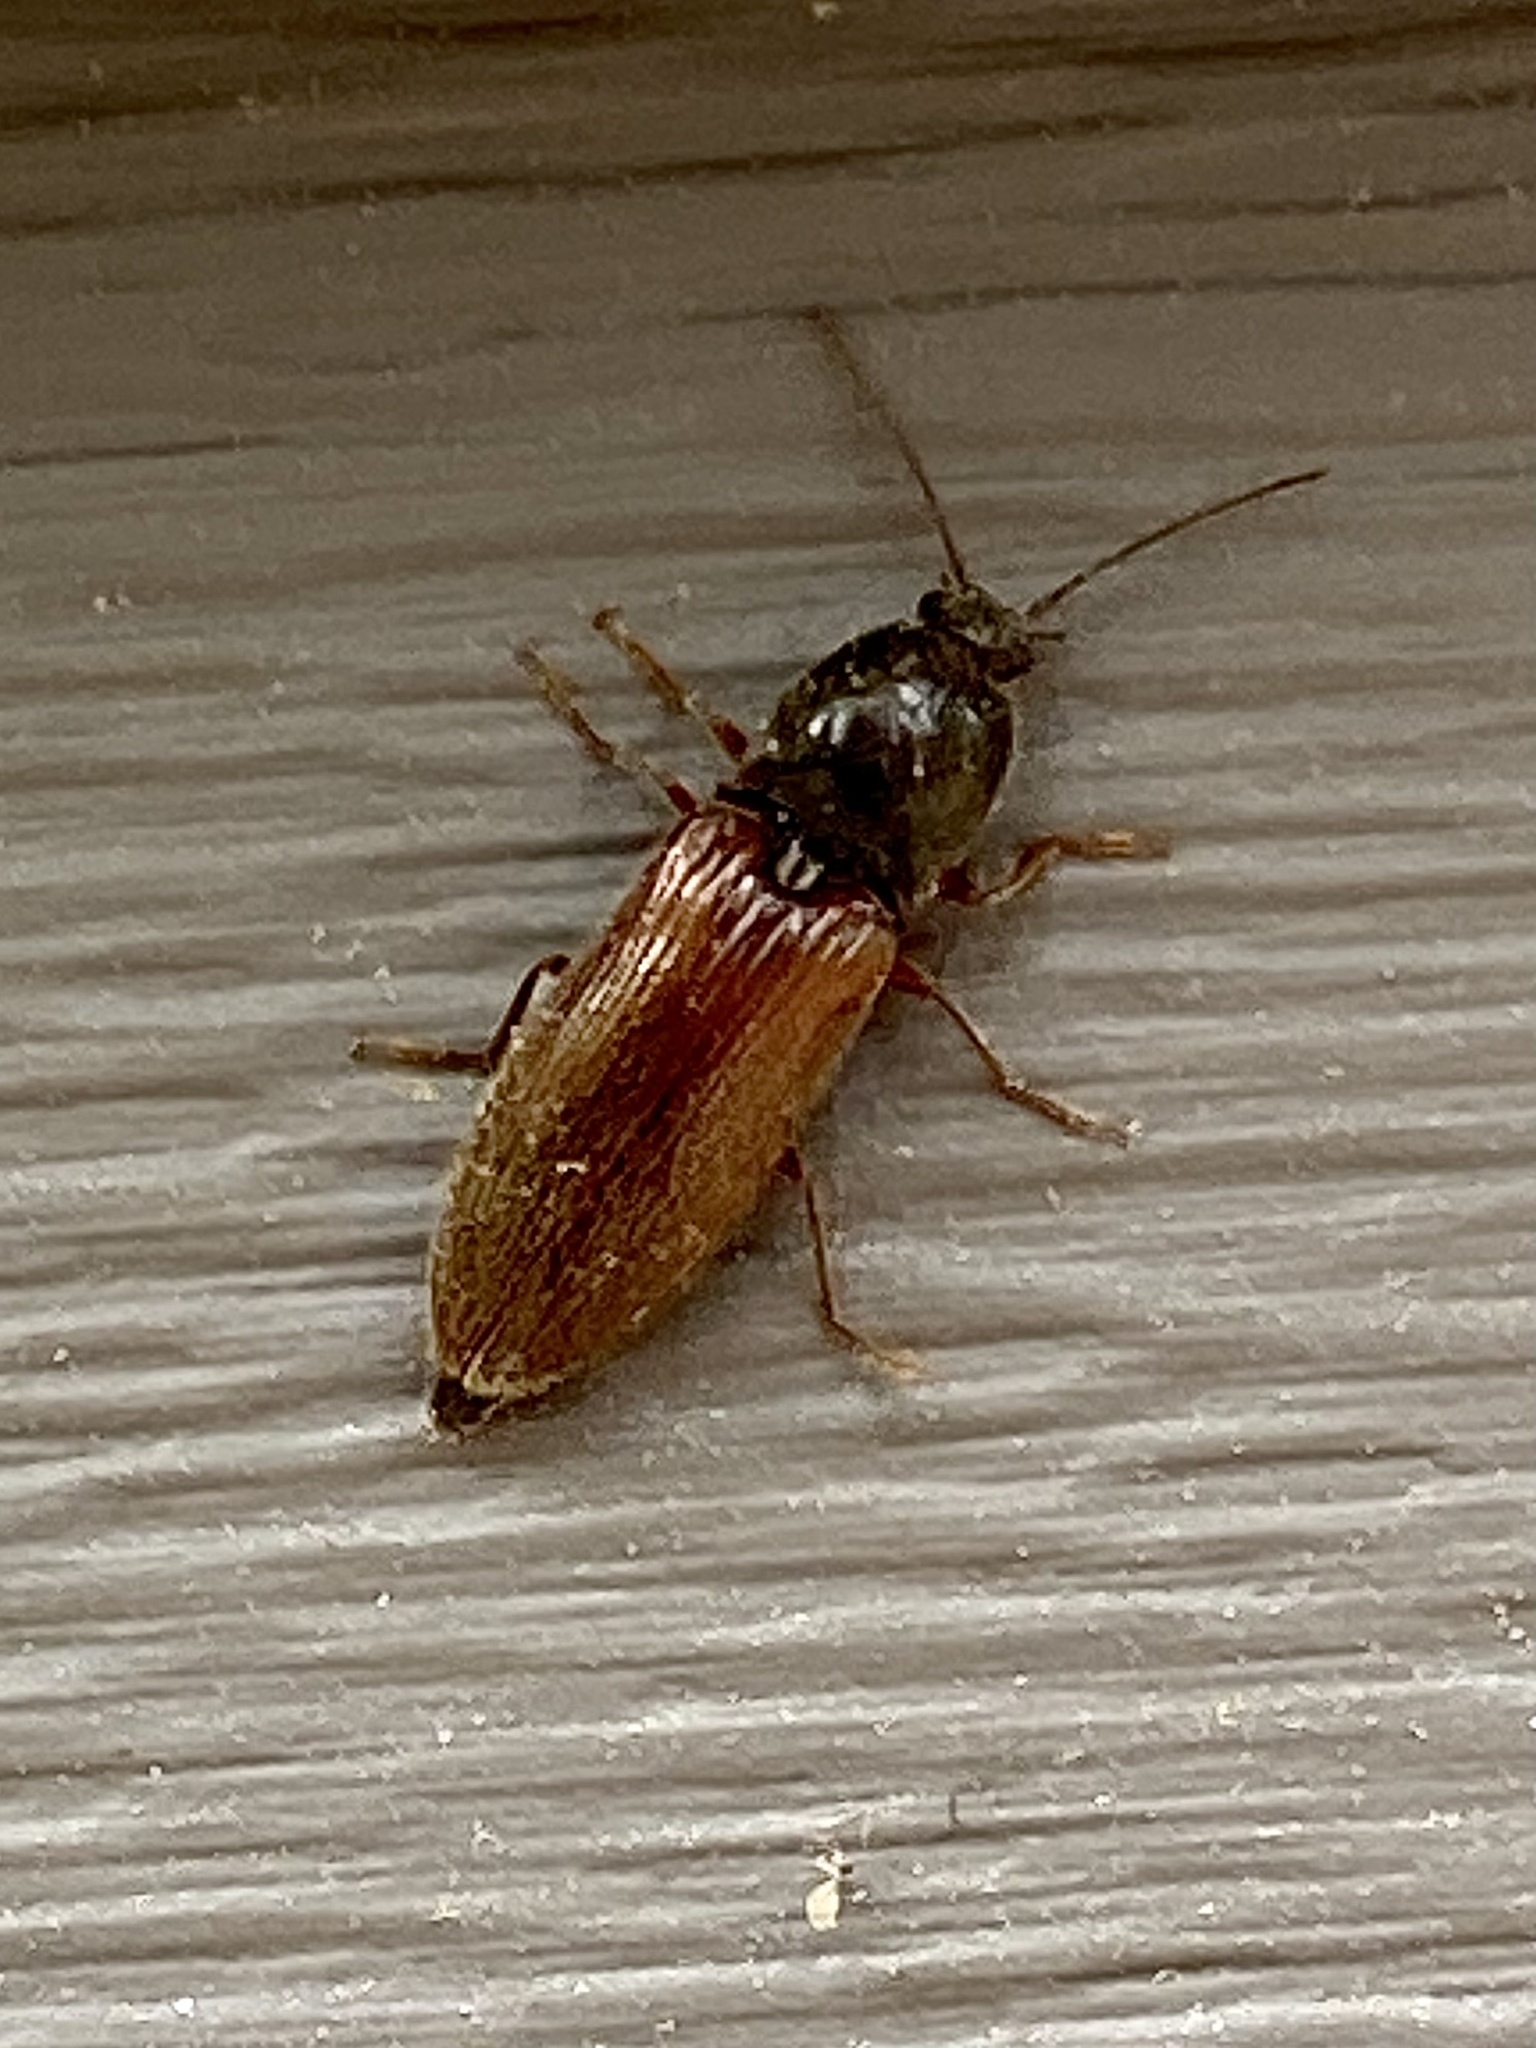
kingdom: Animalia
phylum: Arthropoda
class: Insecta
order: Coleoptera
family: Elateridae
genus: Hemicrepidius
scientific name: Hemicrepidius
